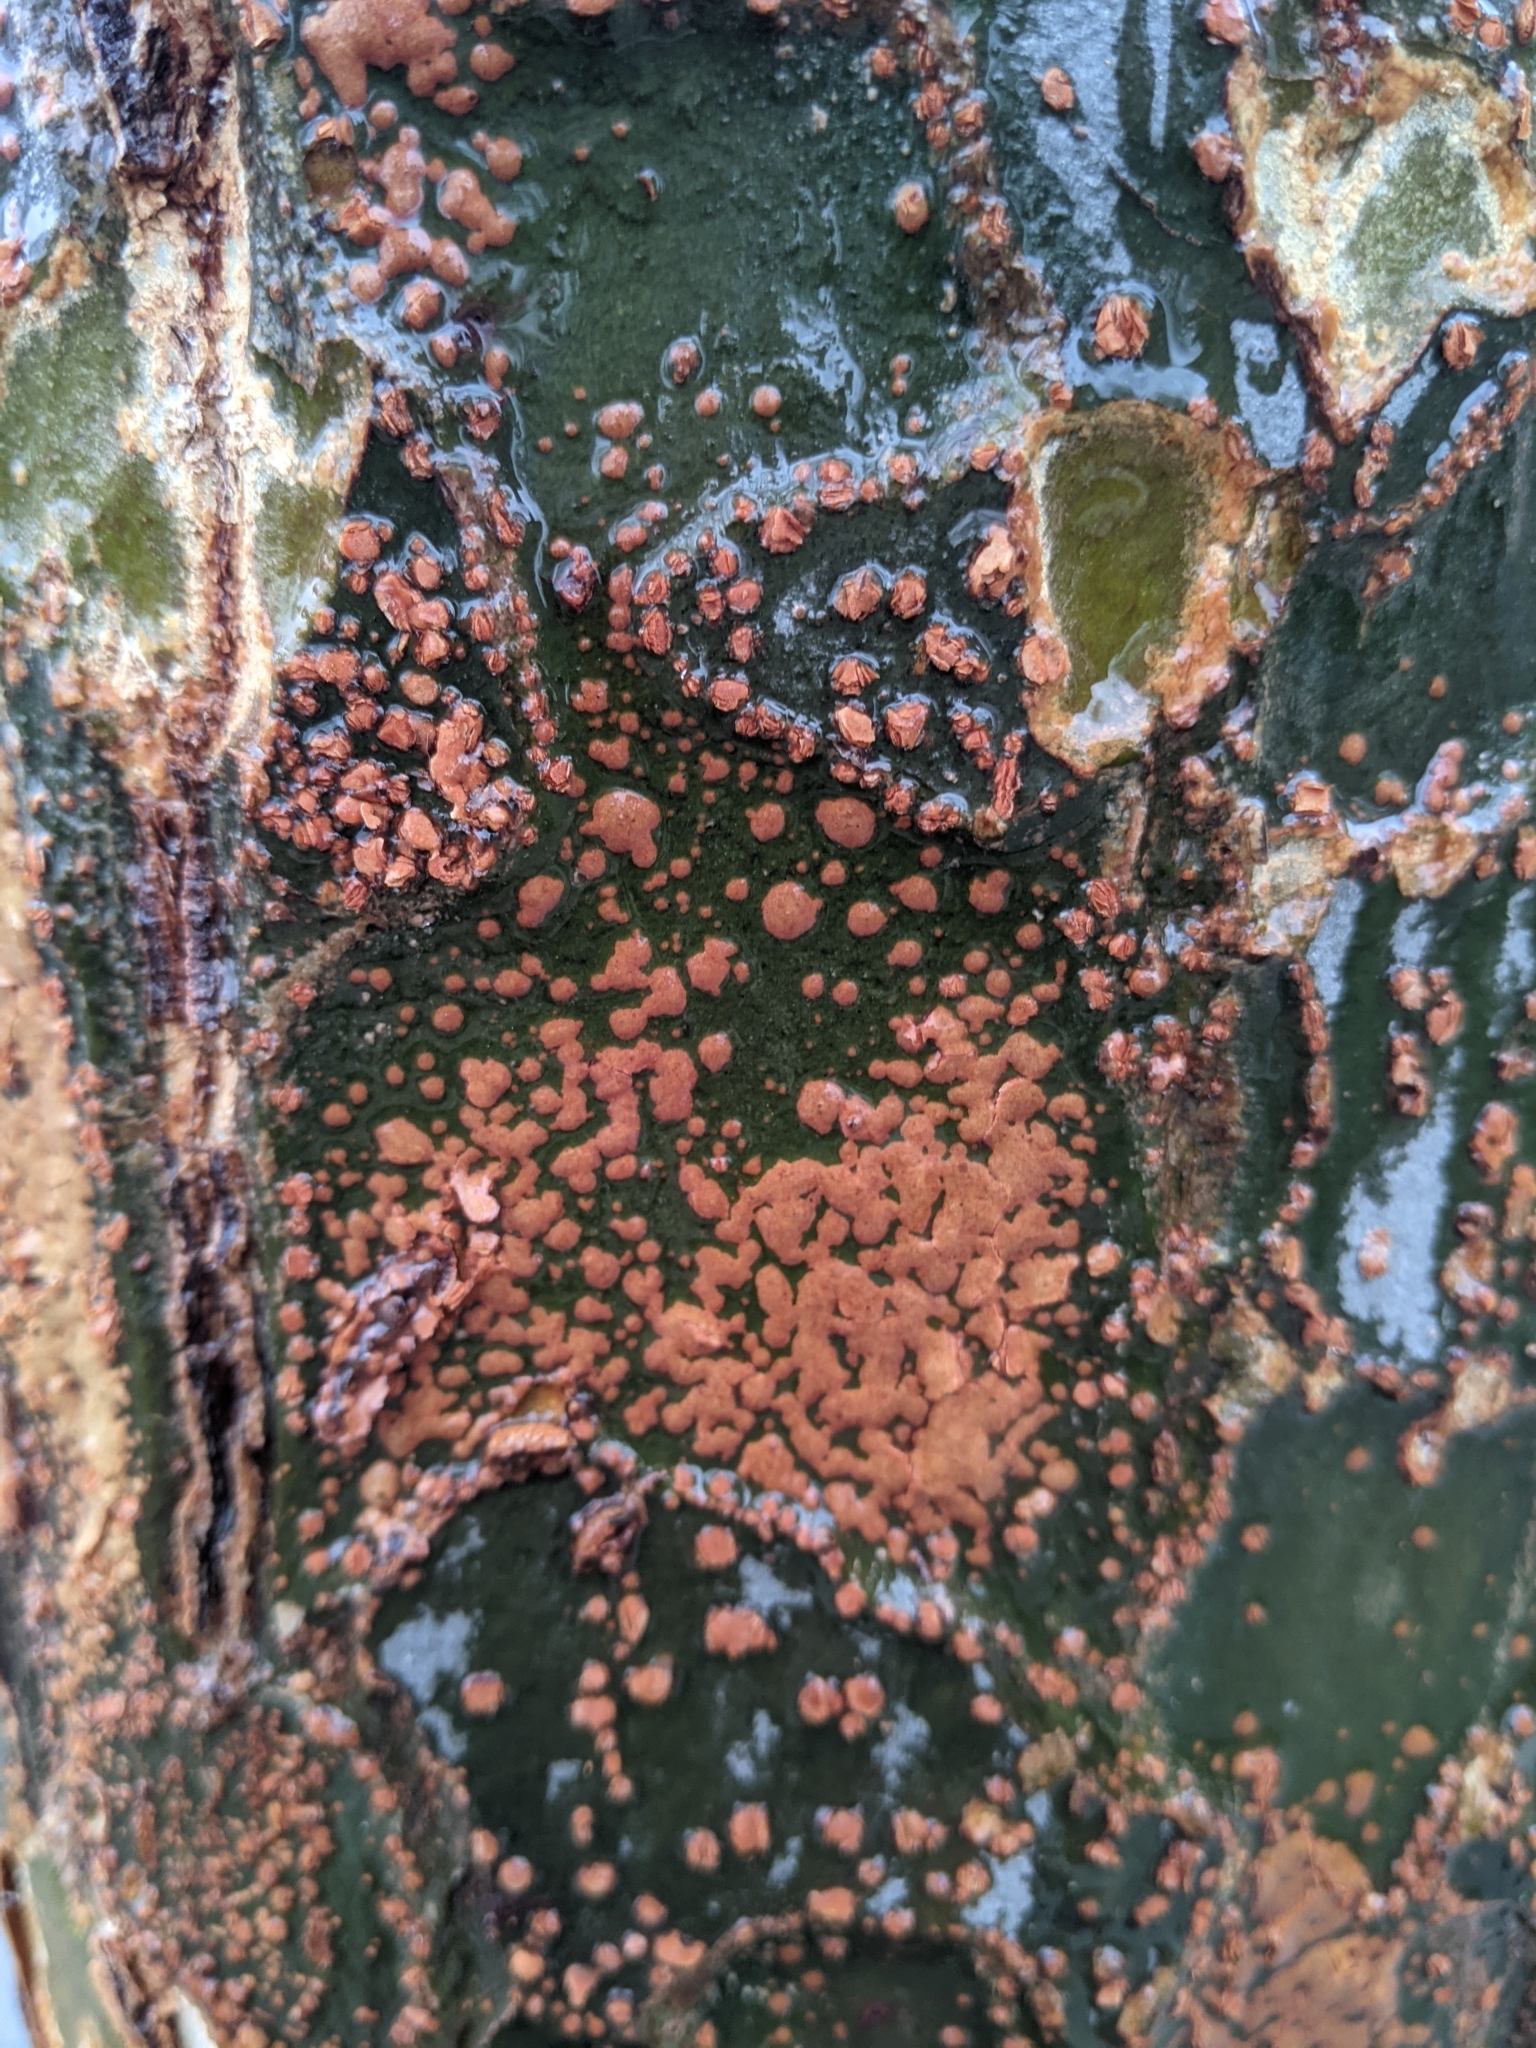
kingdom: Plantae
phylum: Tracheophyta
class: Magnoliopsida
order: Rosales
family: Ulmaceae
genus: Ulmus
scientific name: Ulmus parvifolia
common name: Chinese elm
